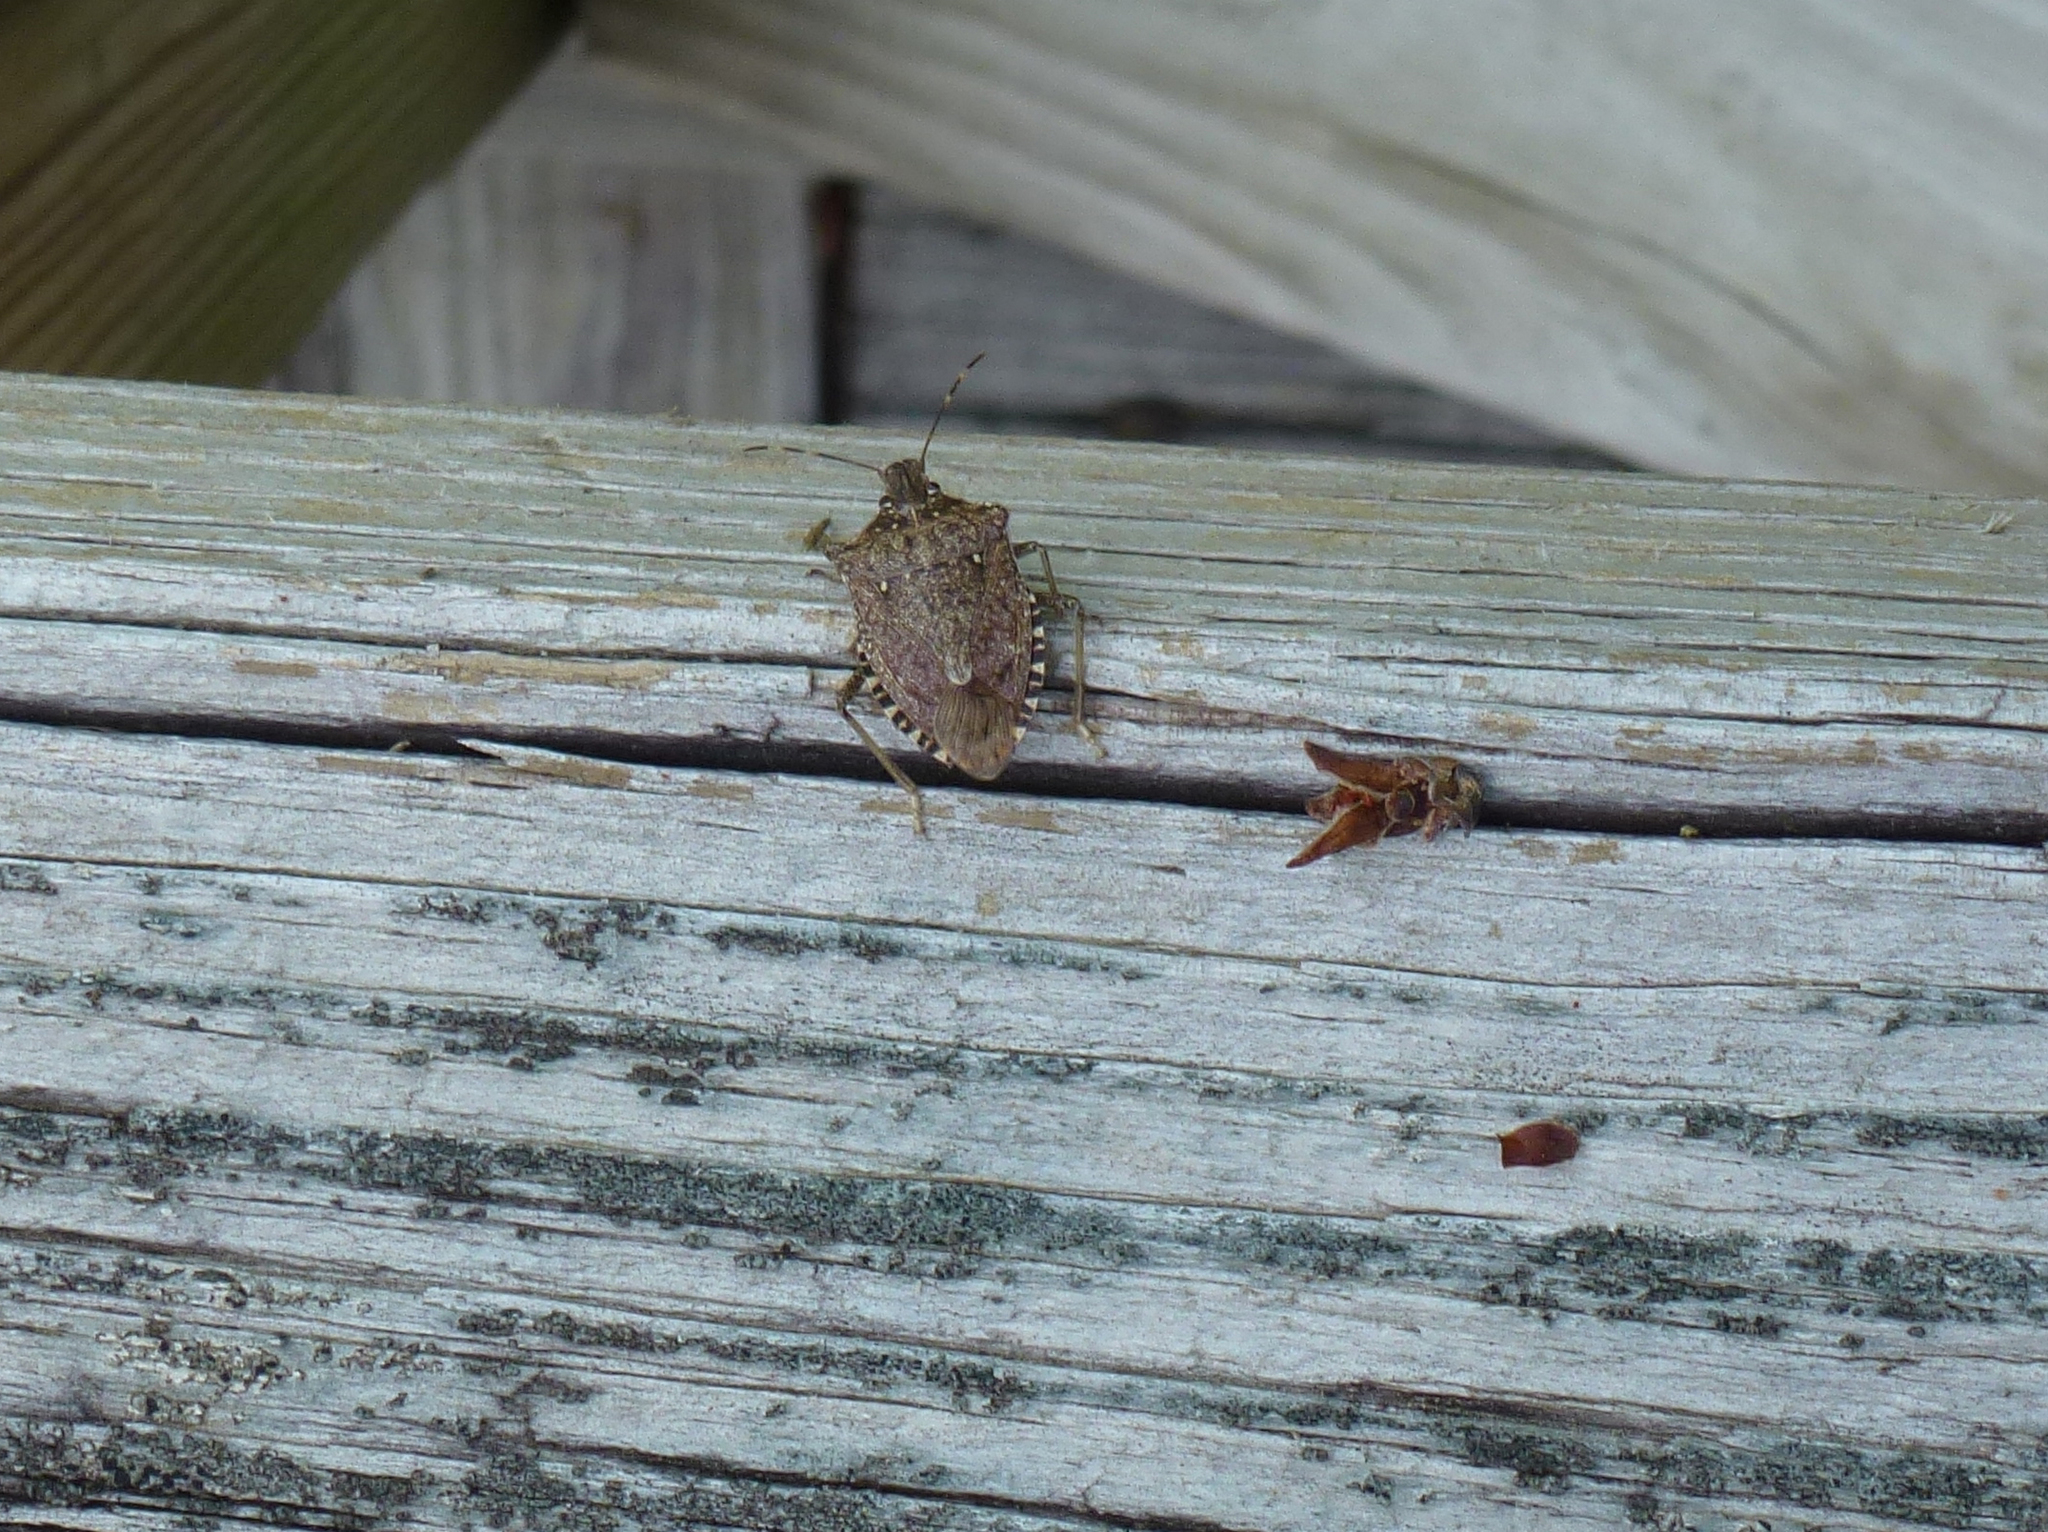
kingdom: Animalia
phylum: Arthropoda
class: Insecta
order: Hemiptera
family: Pentatomidae
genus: Halyomorpha
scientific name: Halyomorpha halys
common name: Brown marmorated stink bug
